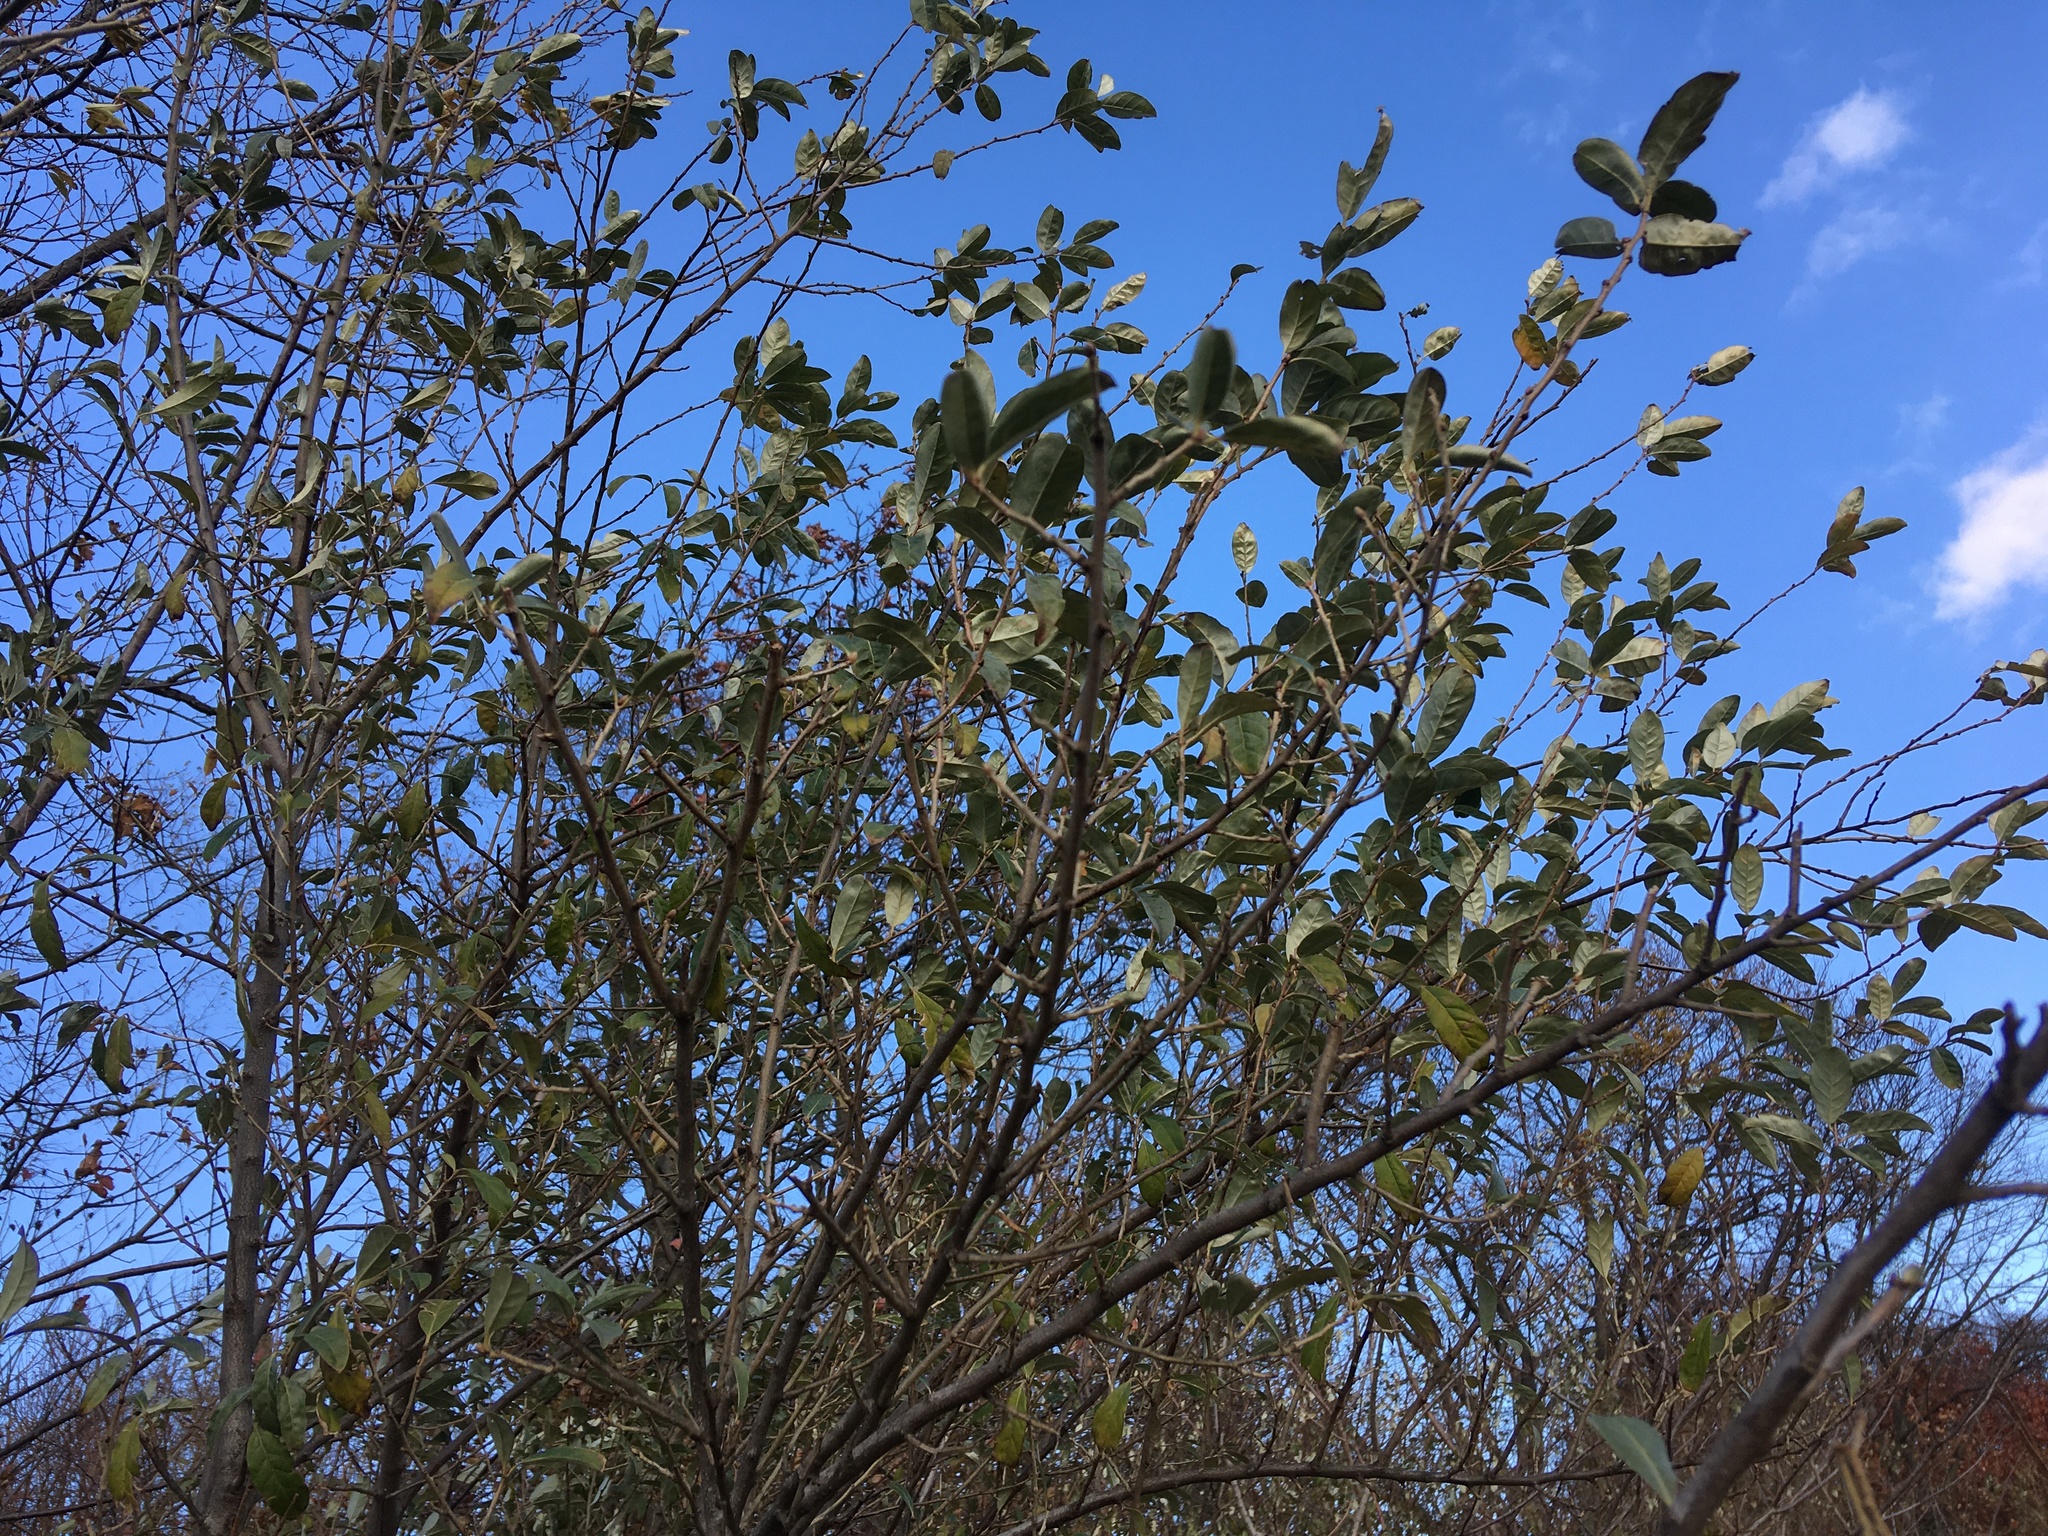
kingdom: Plantae
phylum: Tracheophyta
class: Magnoliopsida
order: Rosales
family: Elaeagnaceae
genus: Elaeagnus
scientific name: Elaeagnus umbellata
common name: Autumn olive
